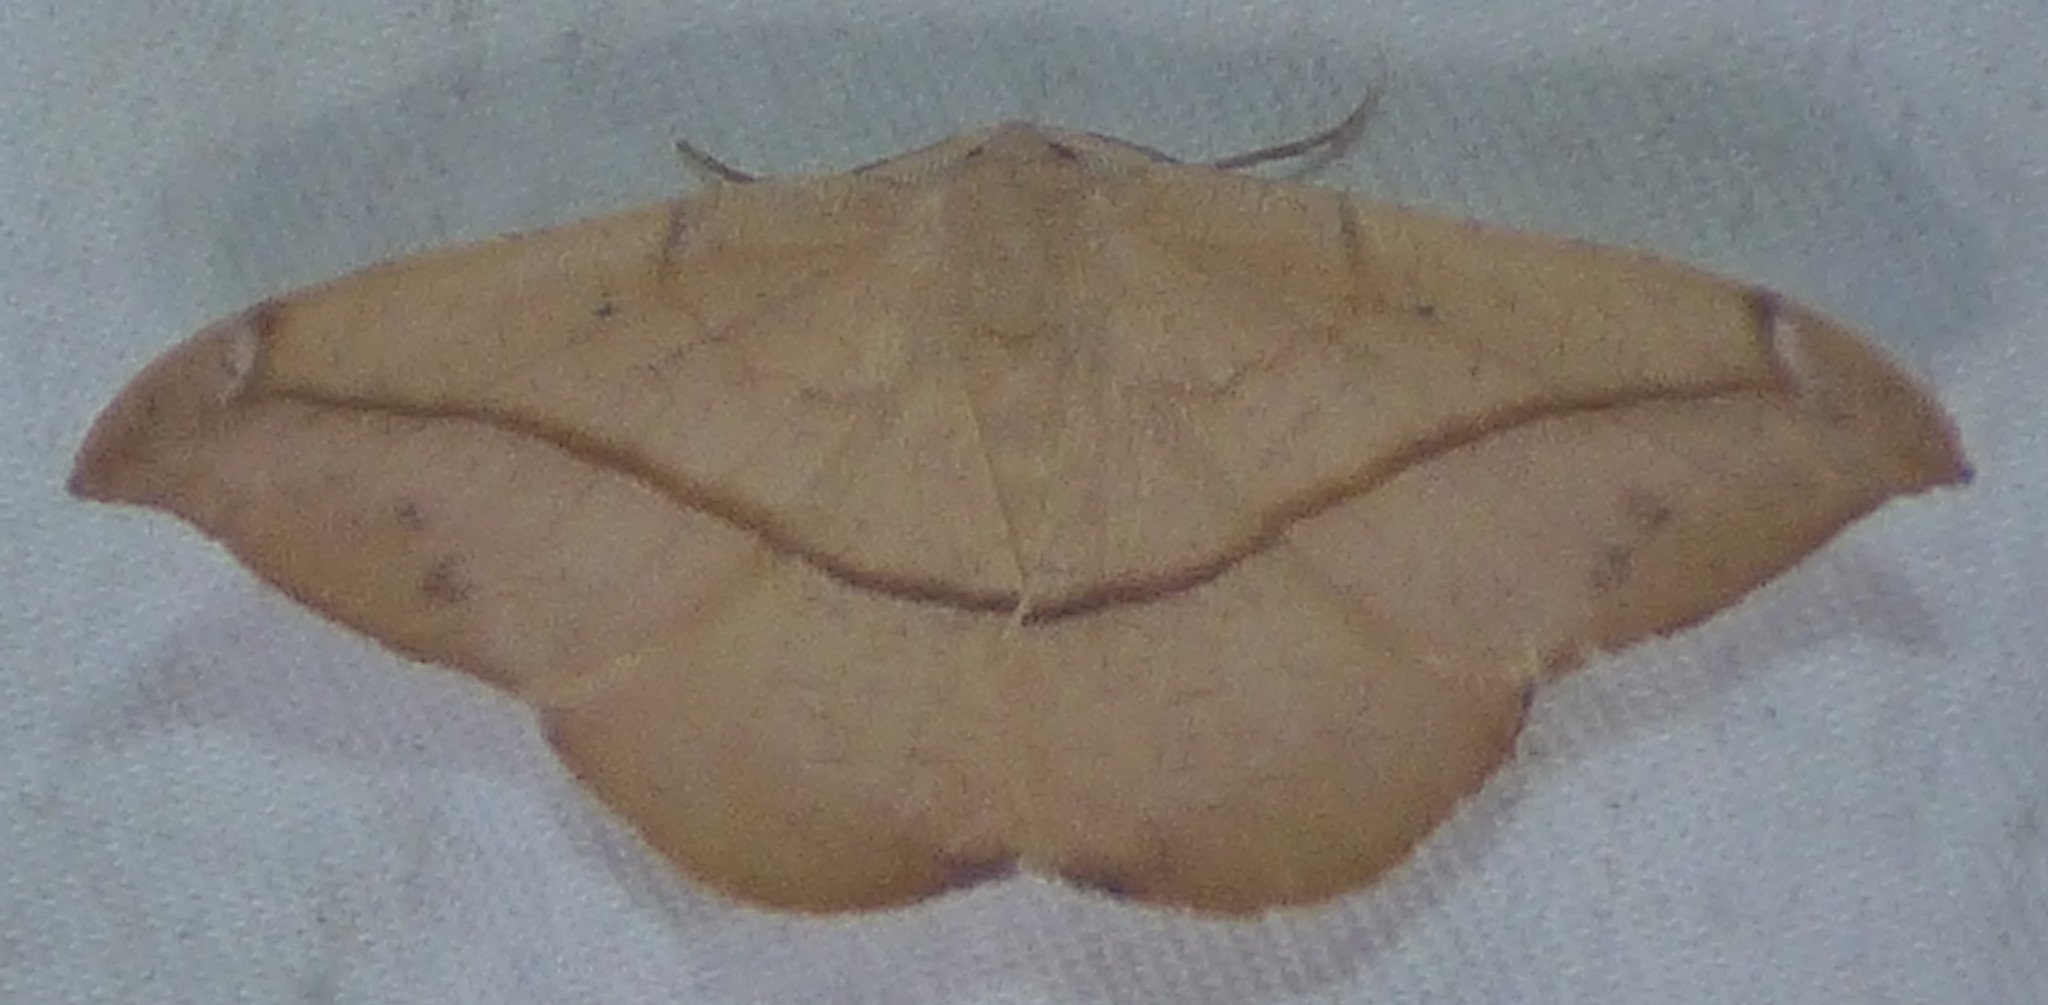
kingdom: Animalia
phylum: Arthropoda
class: Insecta
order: Lepidoptera
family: Geometridae
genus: Patalene
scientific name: Patalene olyzonaria
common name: Juniper geometer moth
